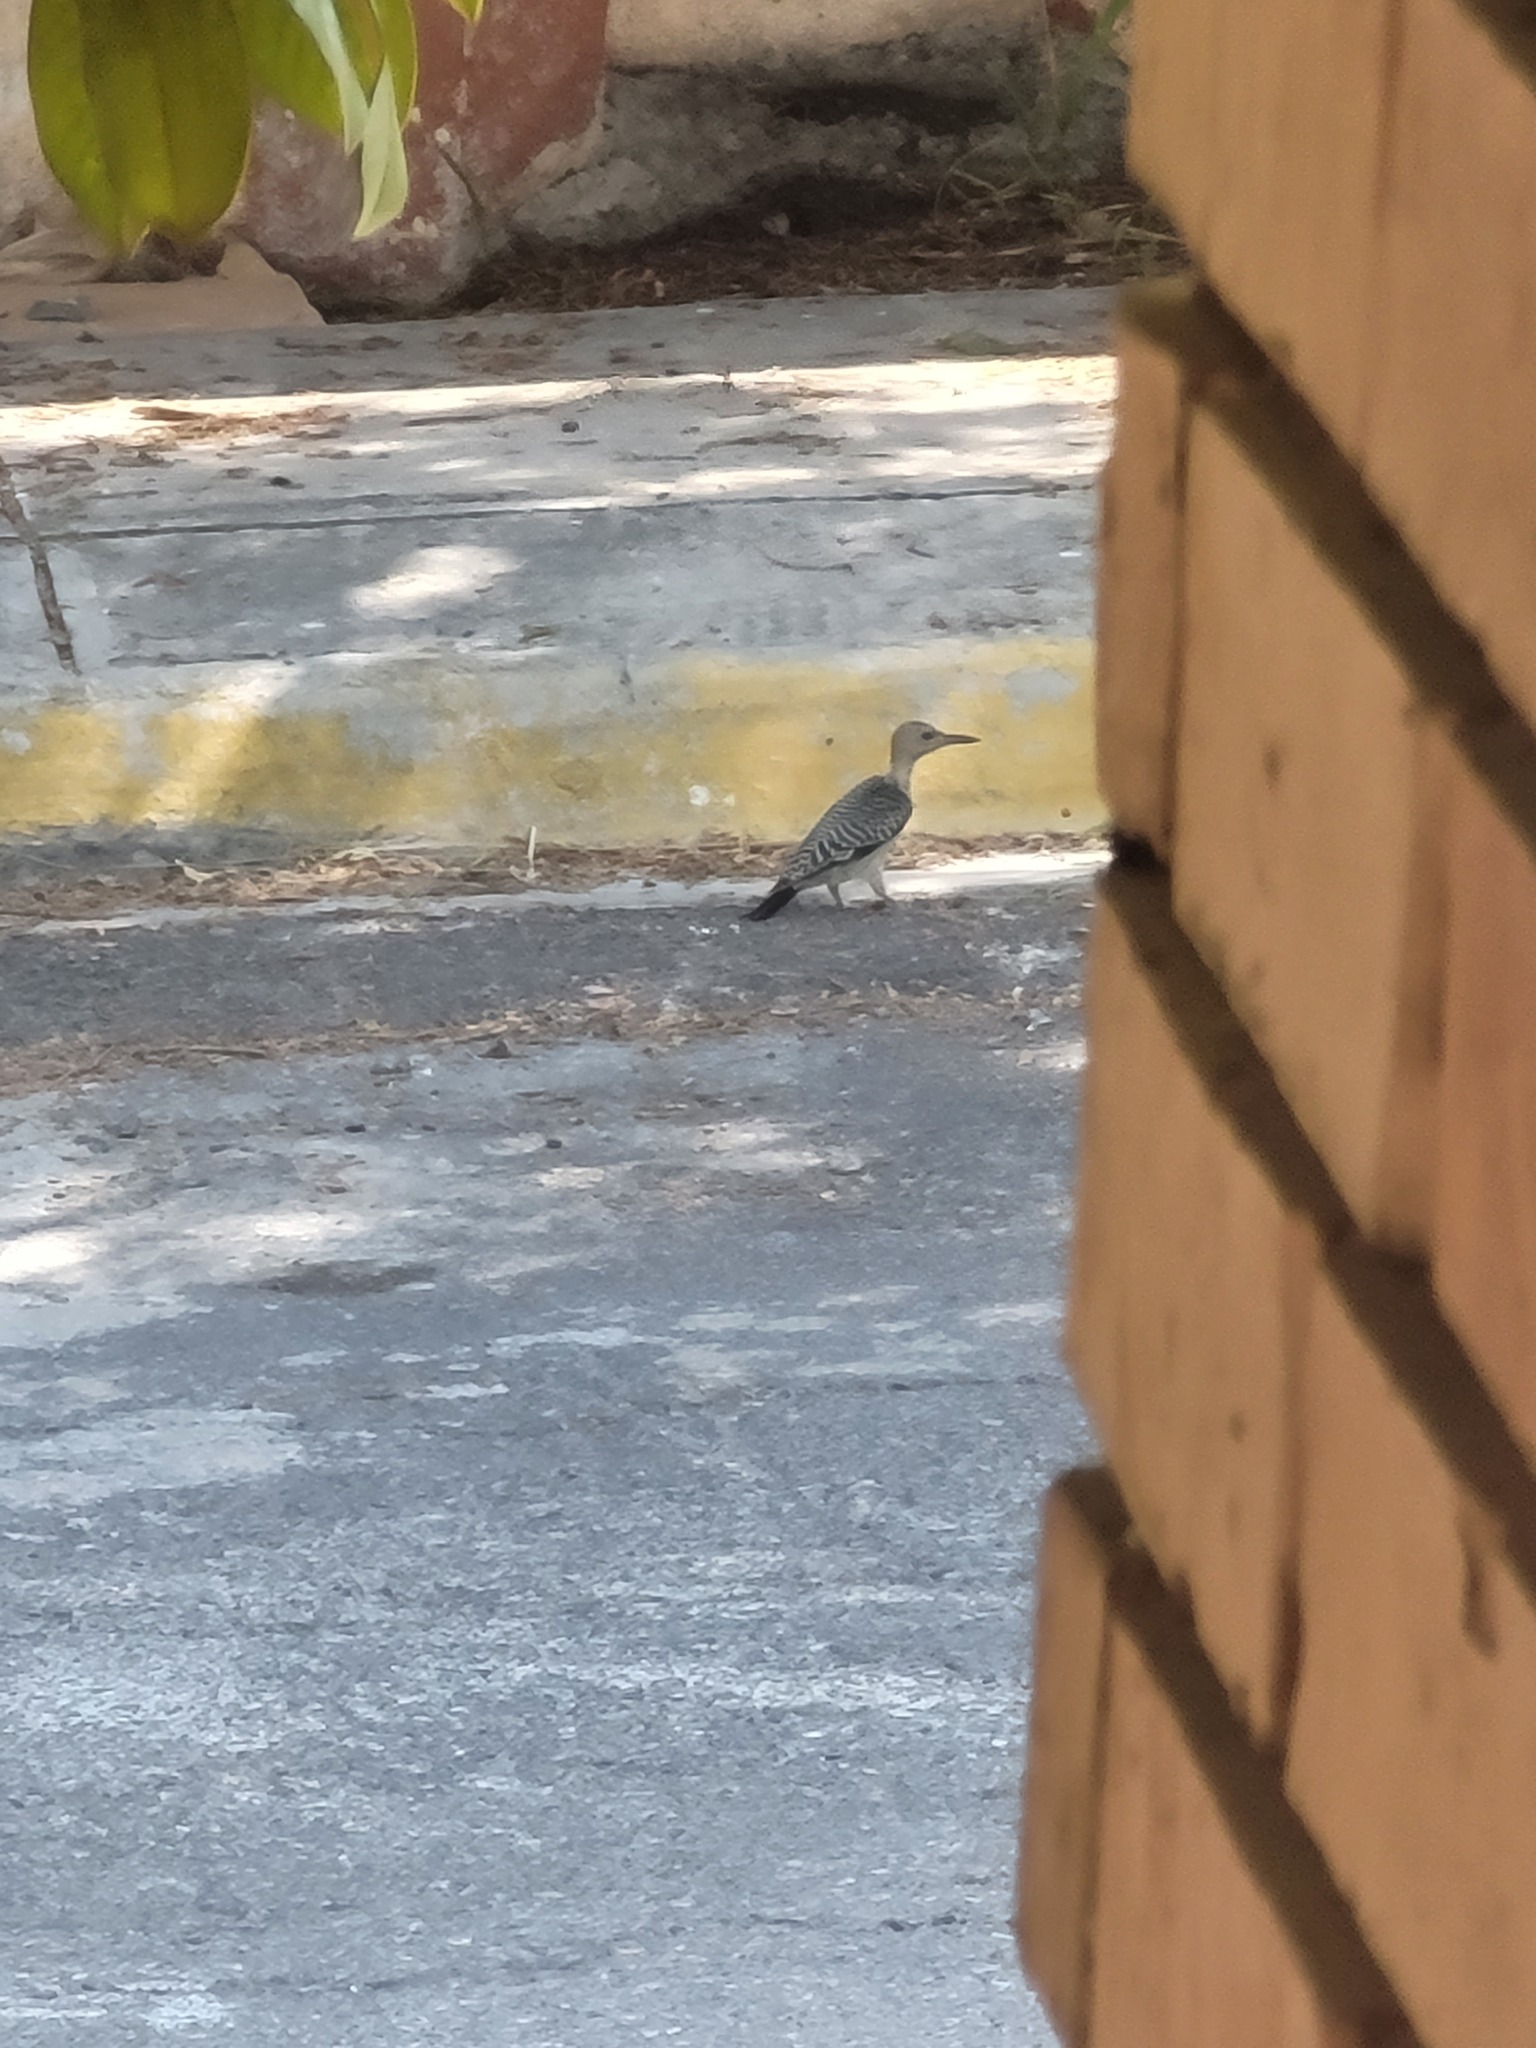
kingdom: Animalia
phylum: Chordata
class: Aves
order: Piciformes
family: Picidae
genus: Melanerpes
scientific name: Melanerpes aurifrons
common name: Golden-fronted woodpecker
